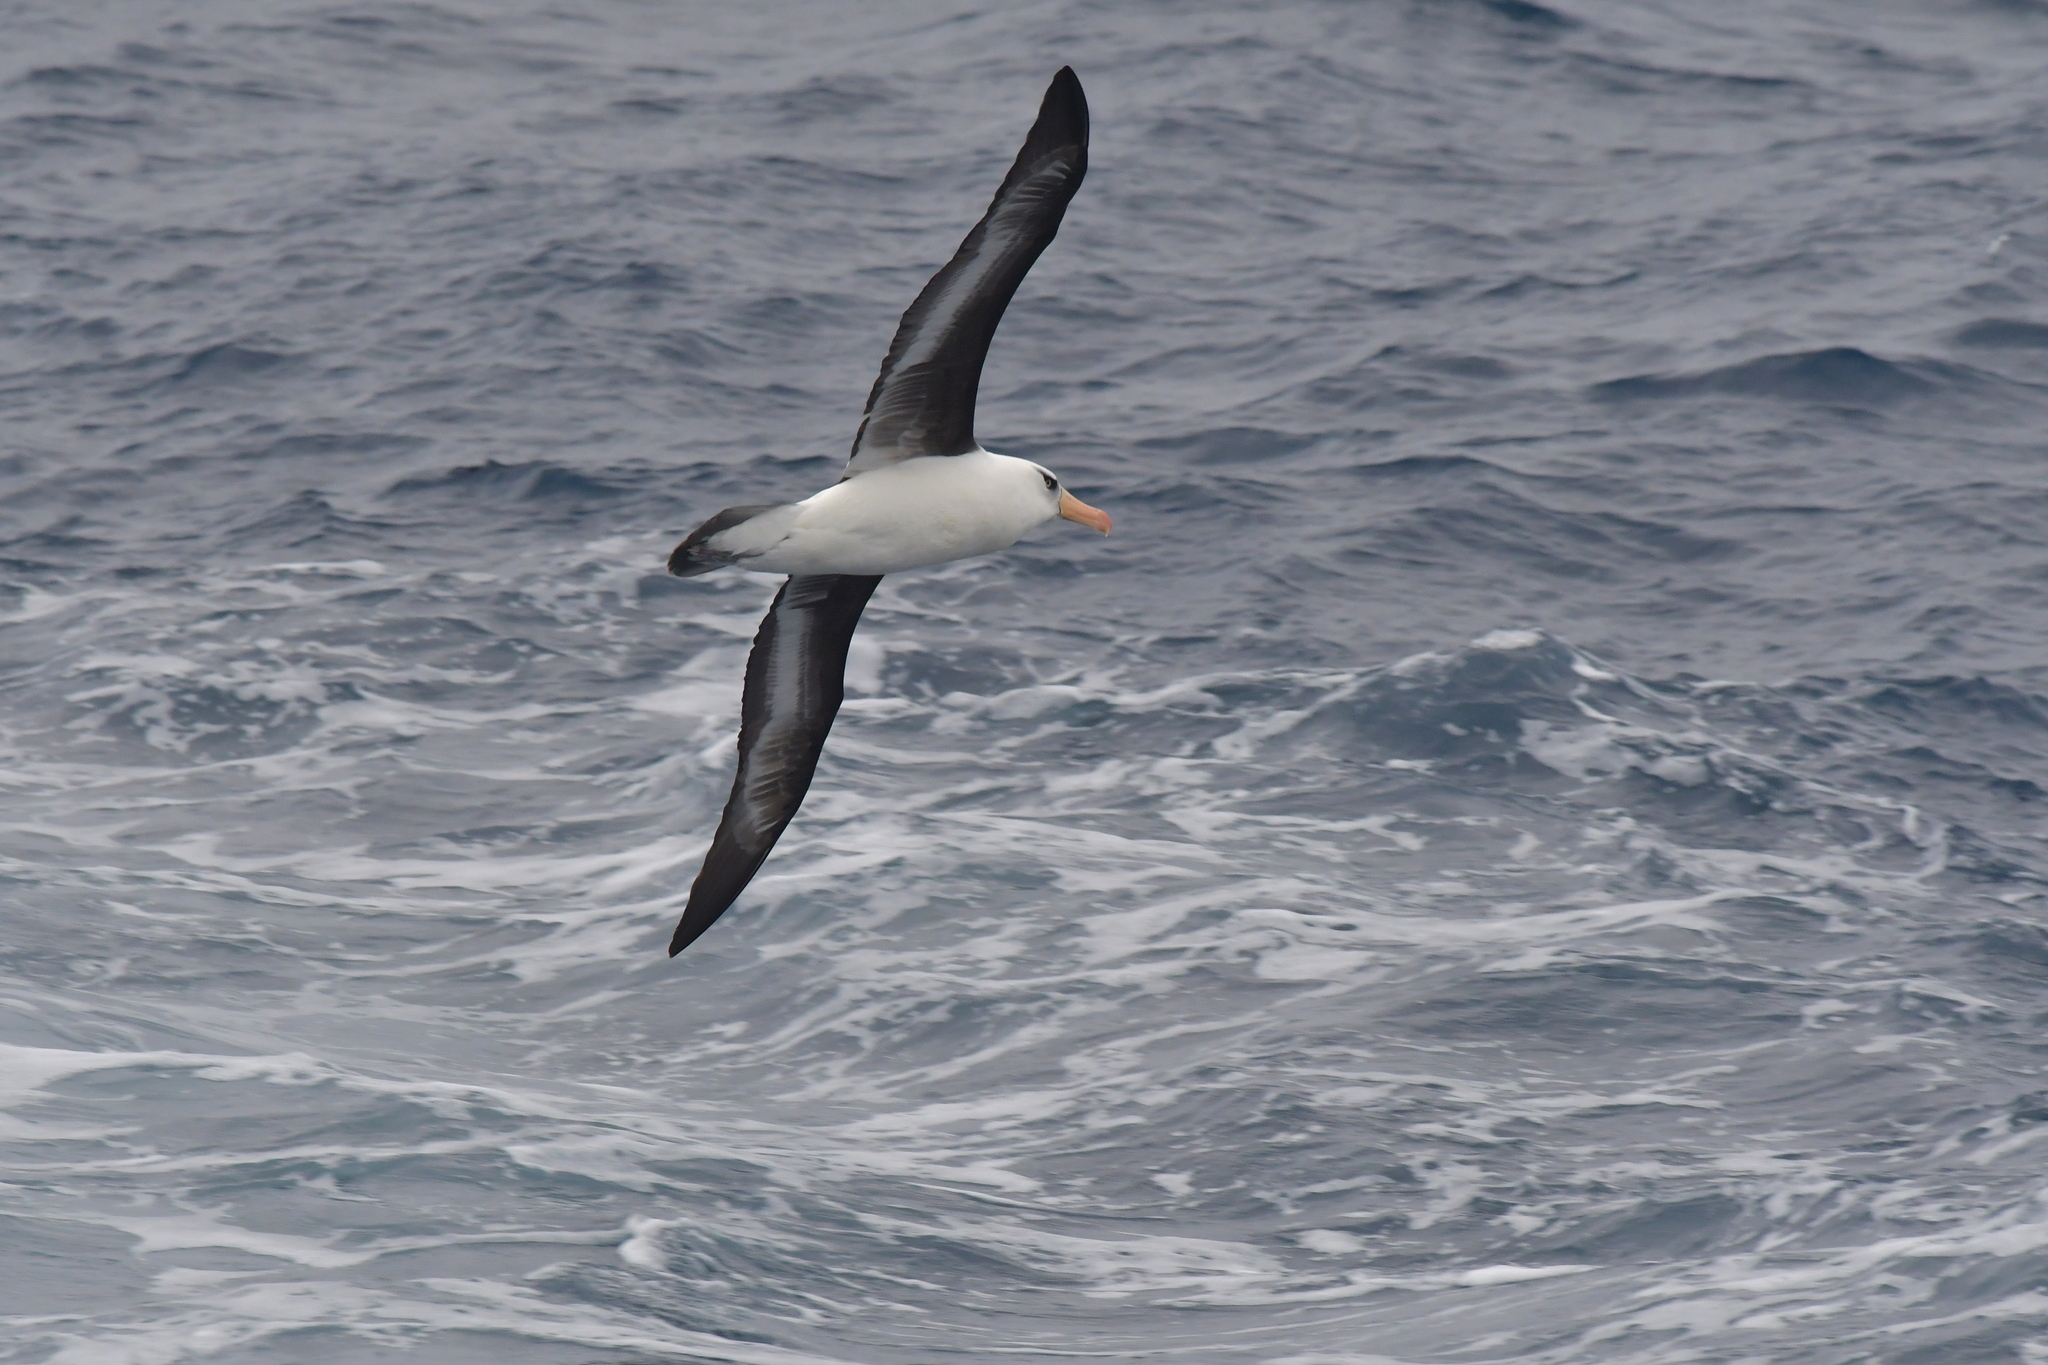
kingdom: Animalia
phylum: Chordata
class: Aves
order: Procellariiformes
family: Diomedeidae
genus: Thalassarche
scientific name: Thalassarche impavida
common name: Campbell albatross
